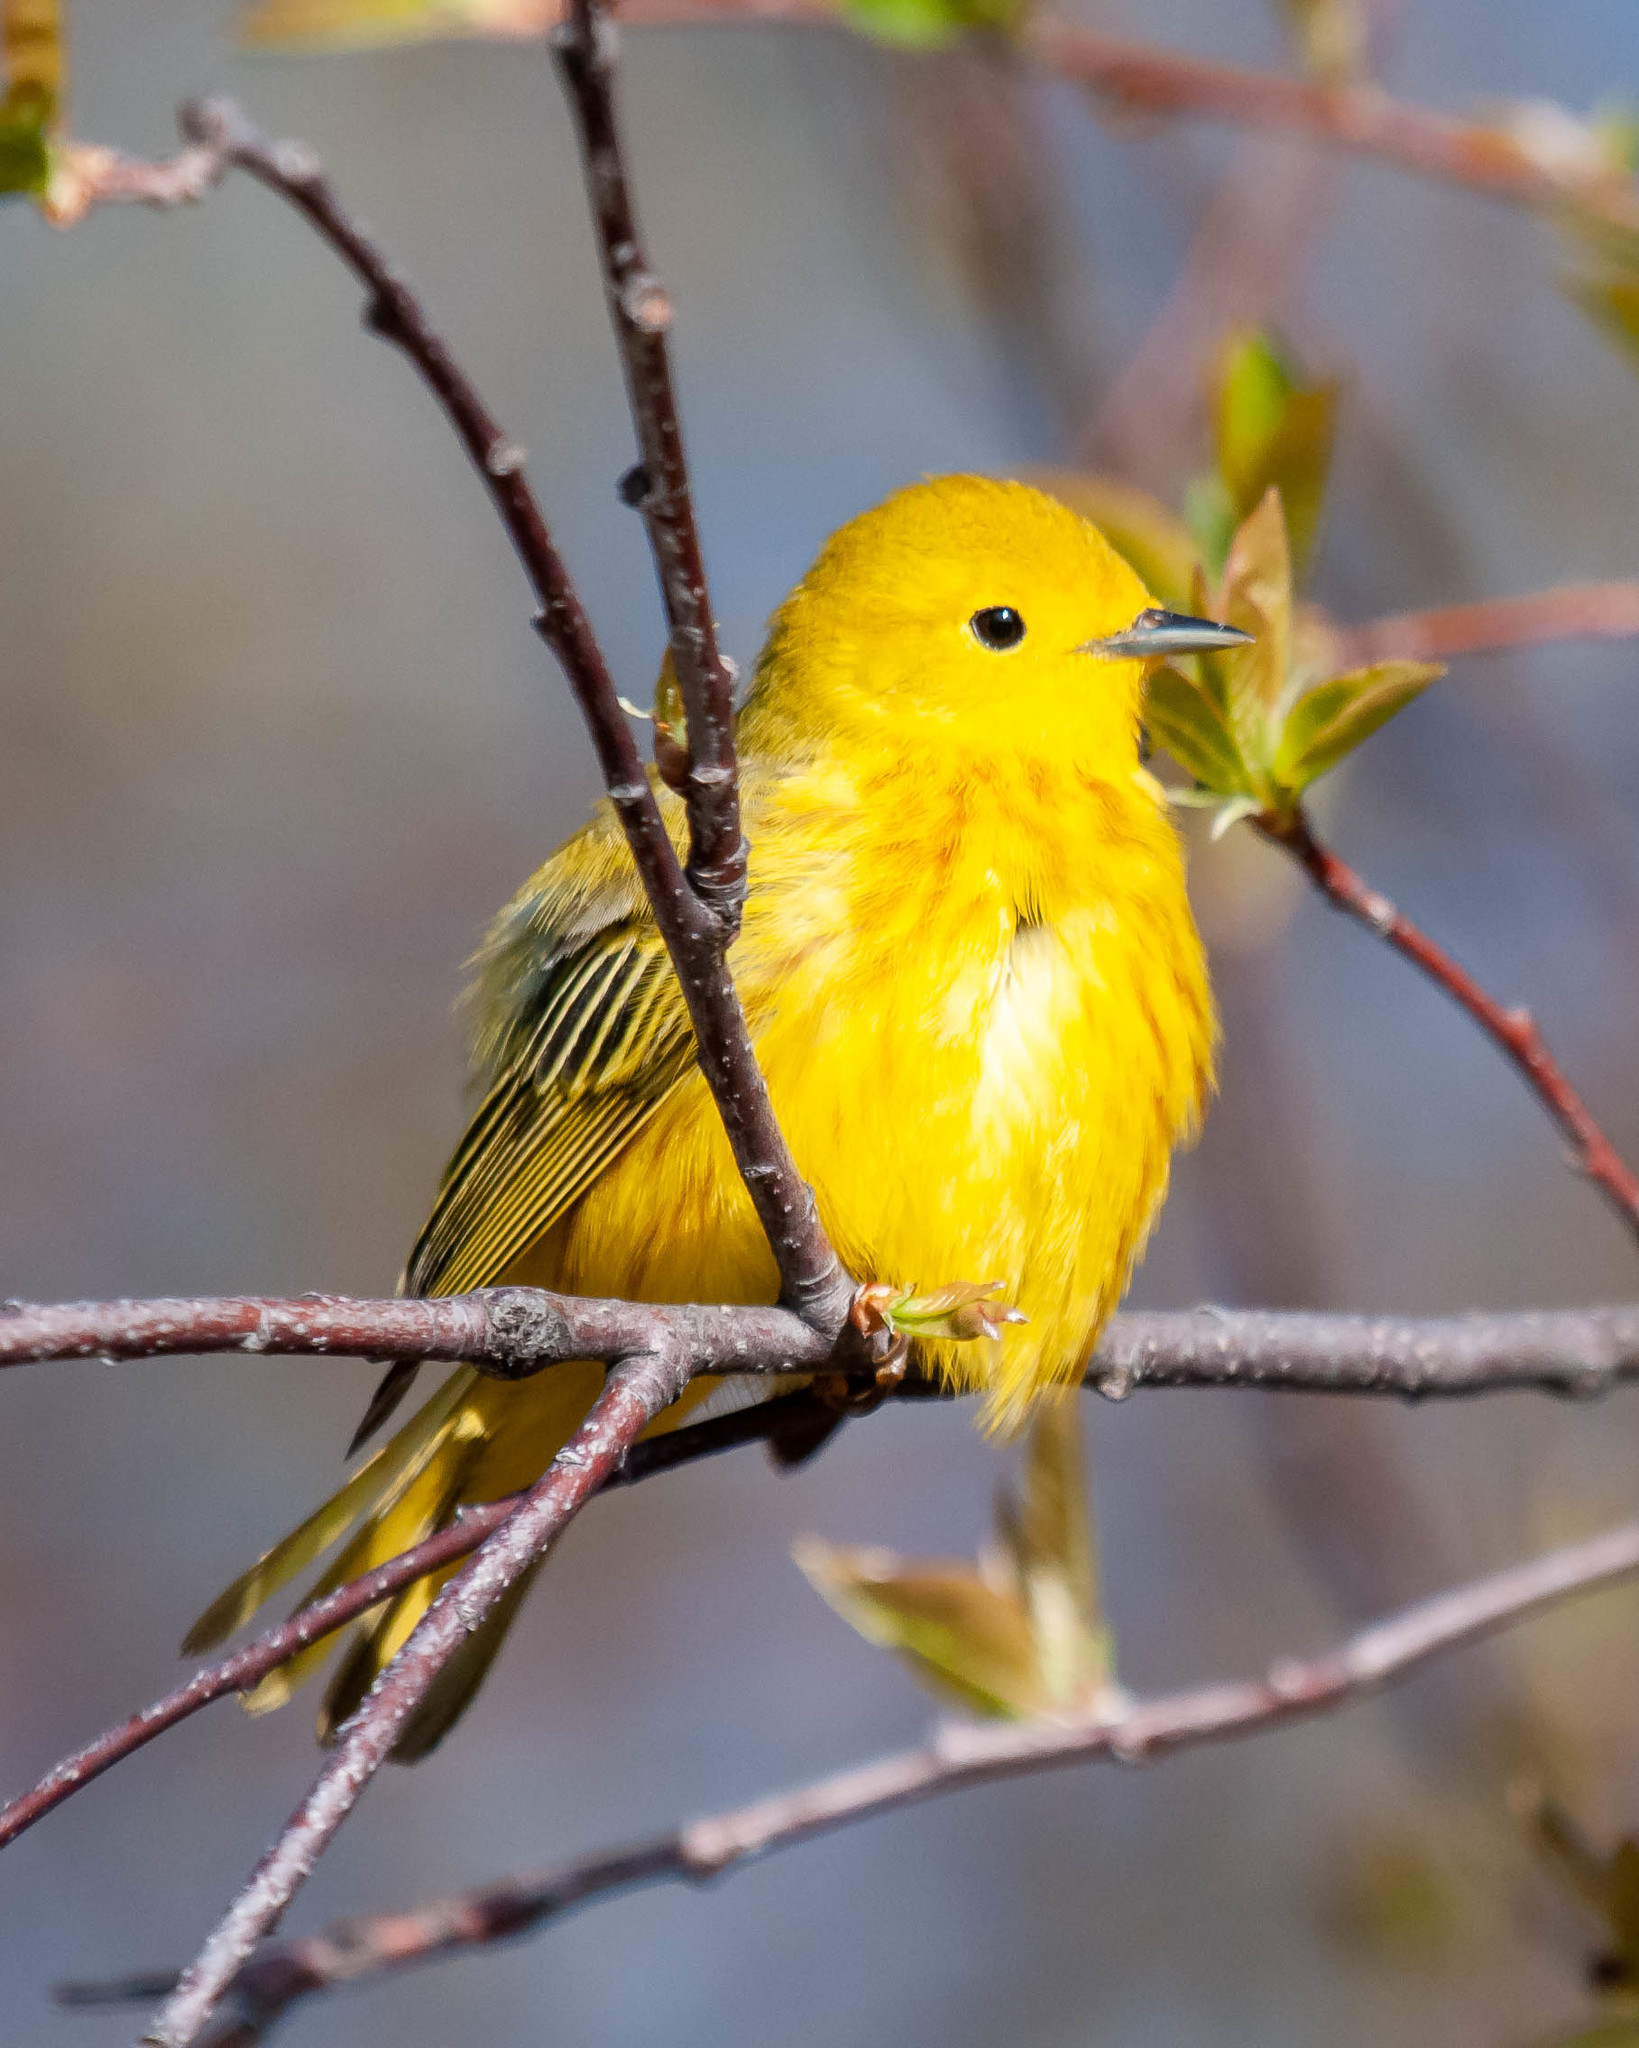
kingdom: Animalia
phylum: Chordata
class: Aves
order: Passeriformes
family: Parulidae
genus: Setophaga
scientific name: Setophaga petechia
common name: Yellow warbler
